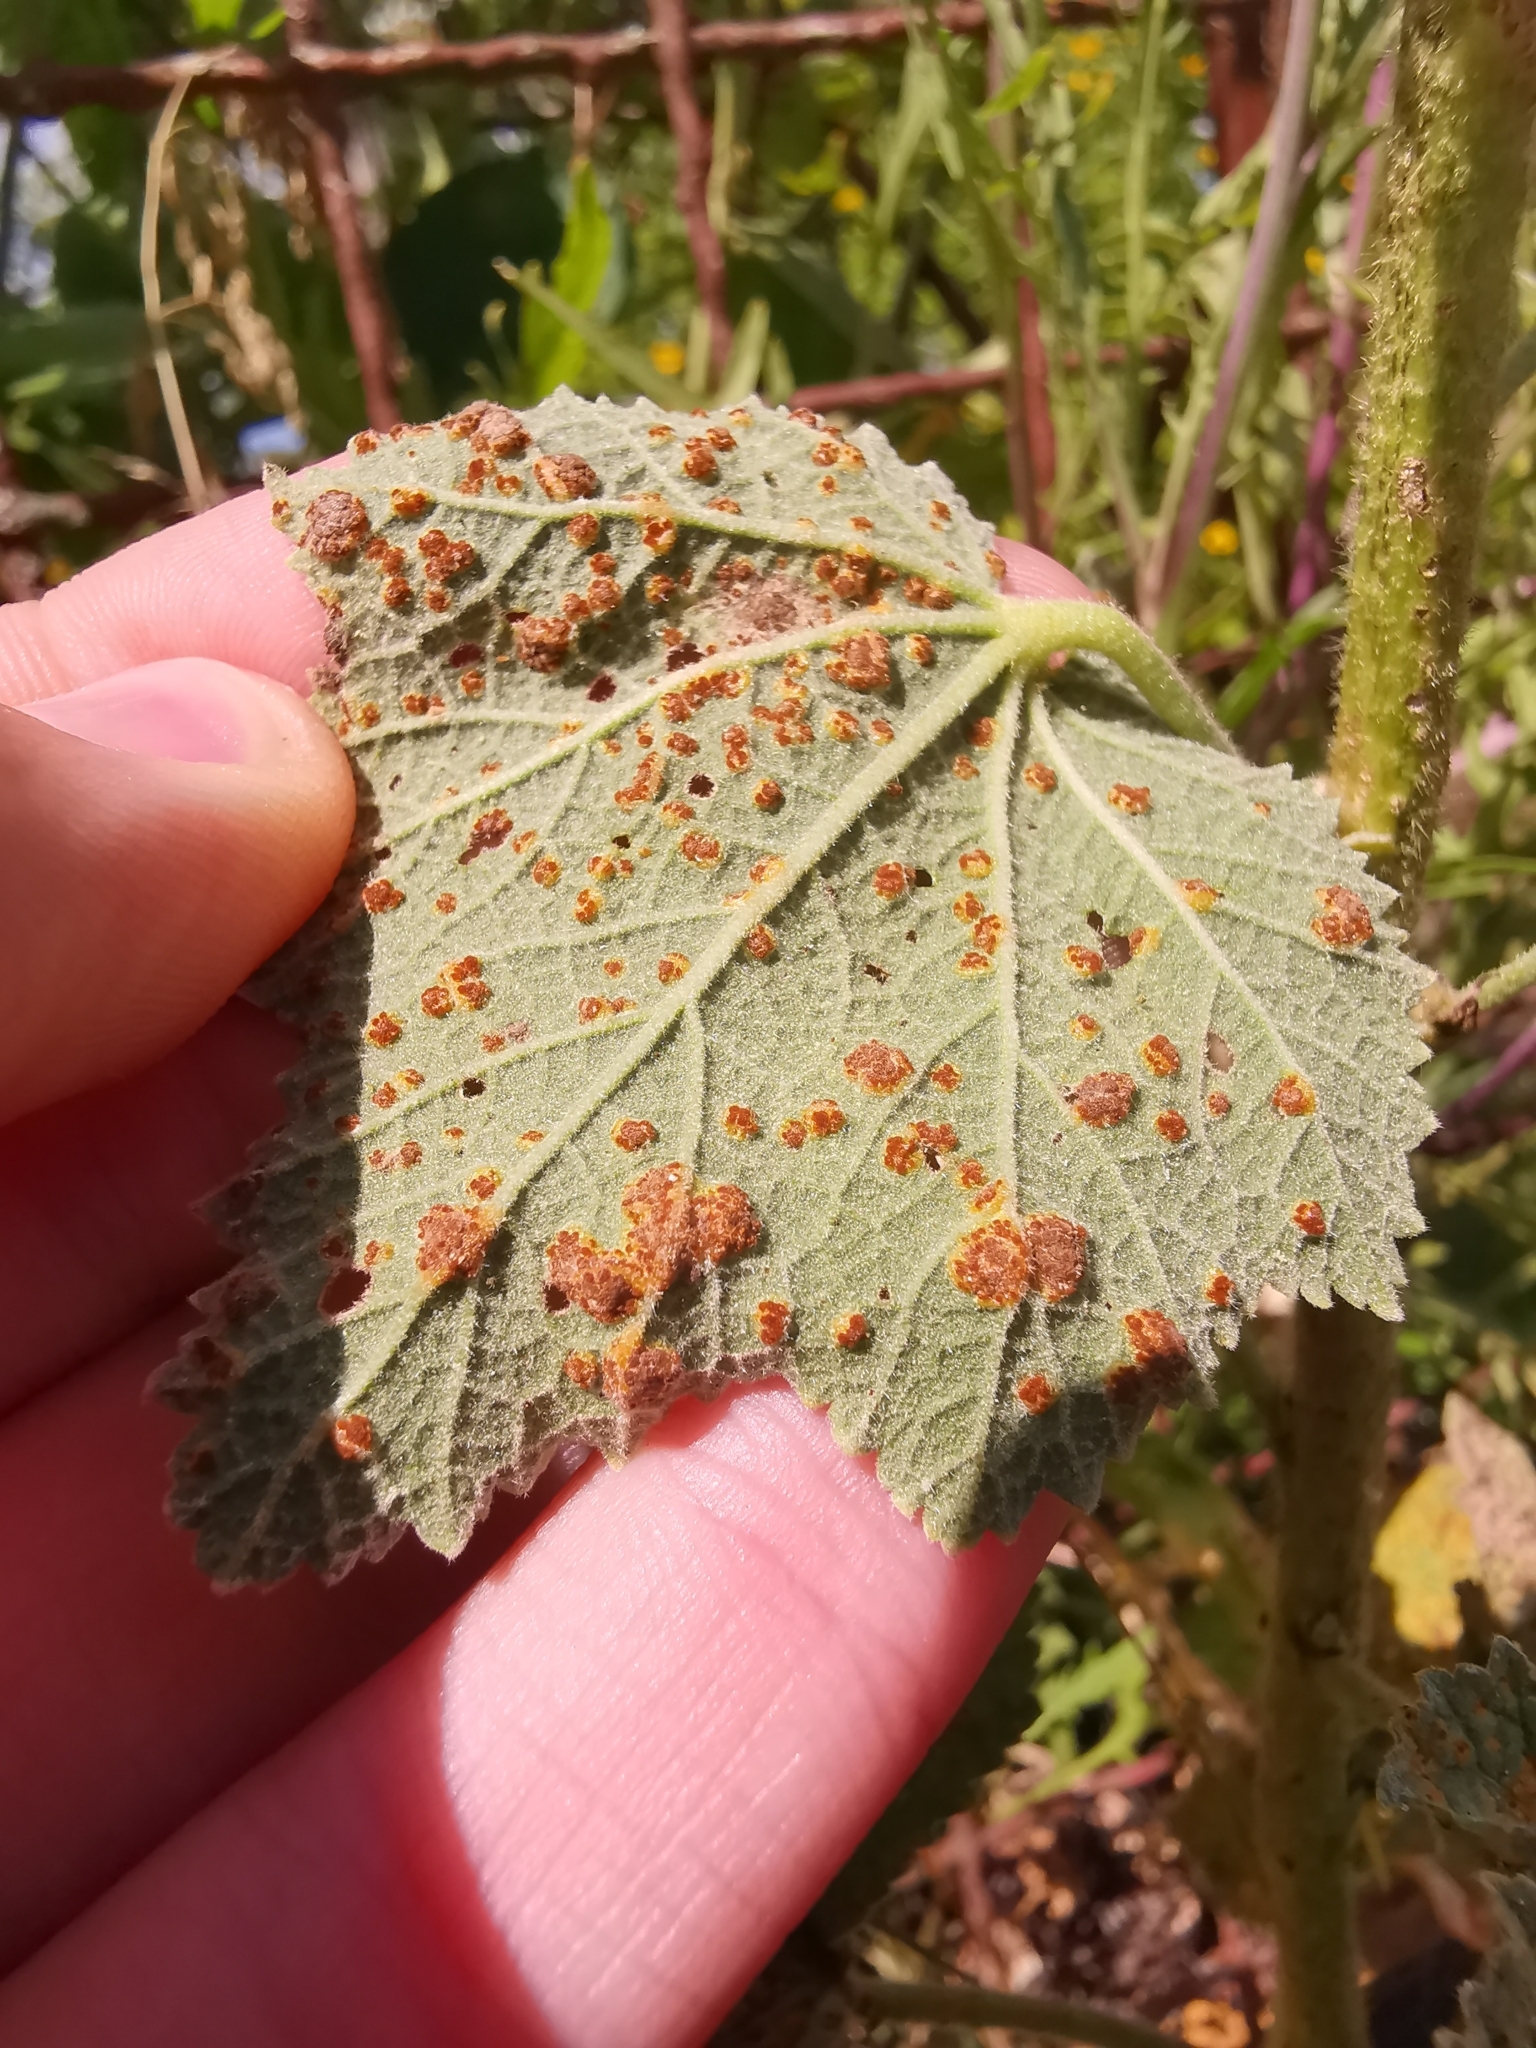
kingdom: Fungi
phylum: Basidiomycota
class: Pucciniomycetes
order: Pucciniales
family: Pucciniaceae
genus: Puccinia
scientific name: Puccinia malvacearum
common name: Hollyhock rust
